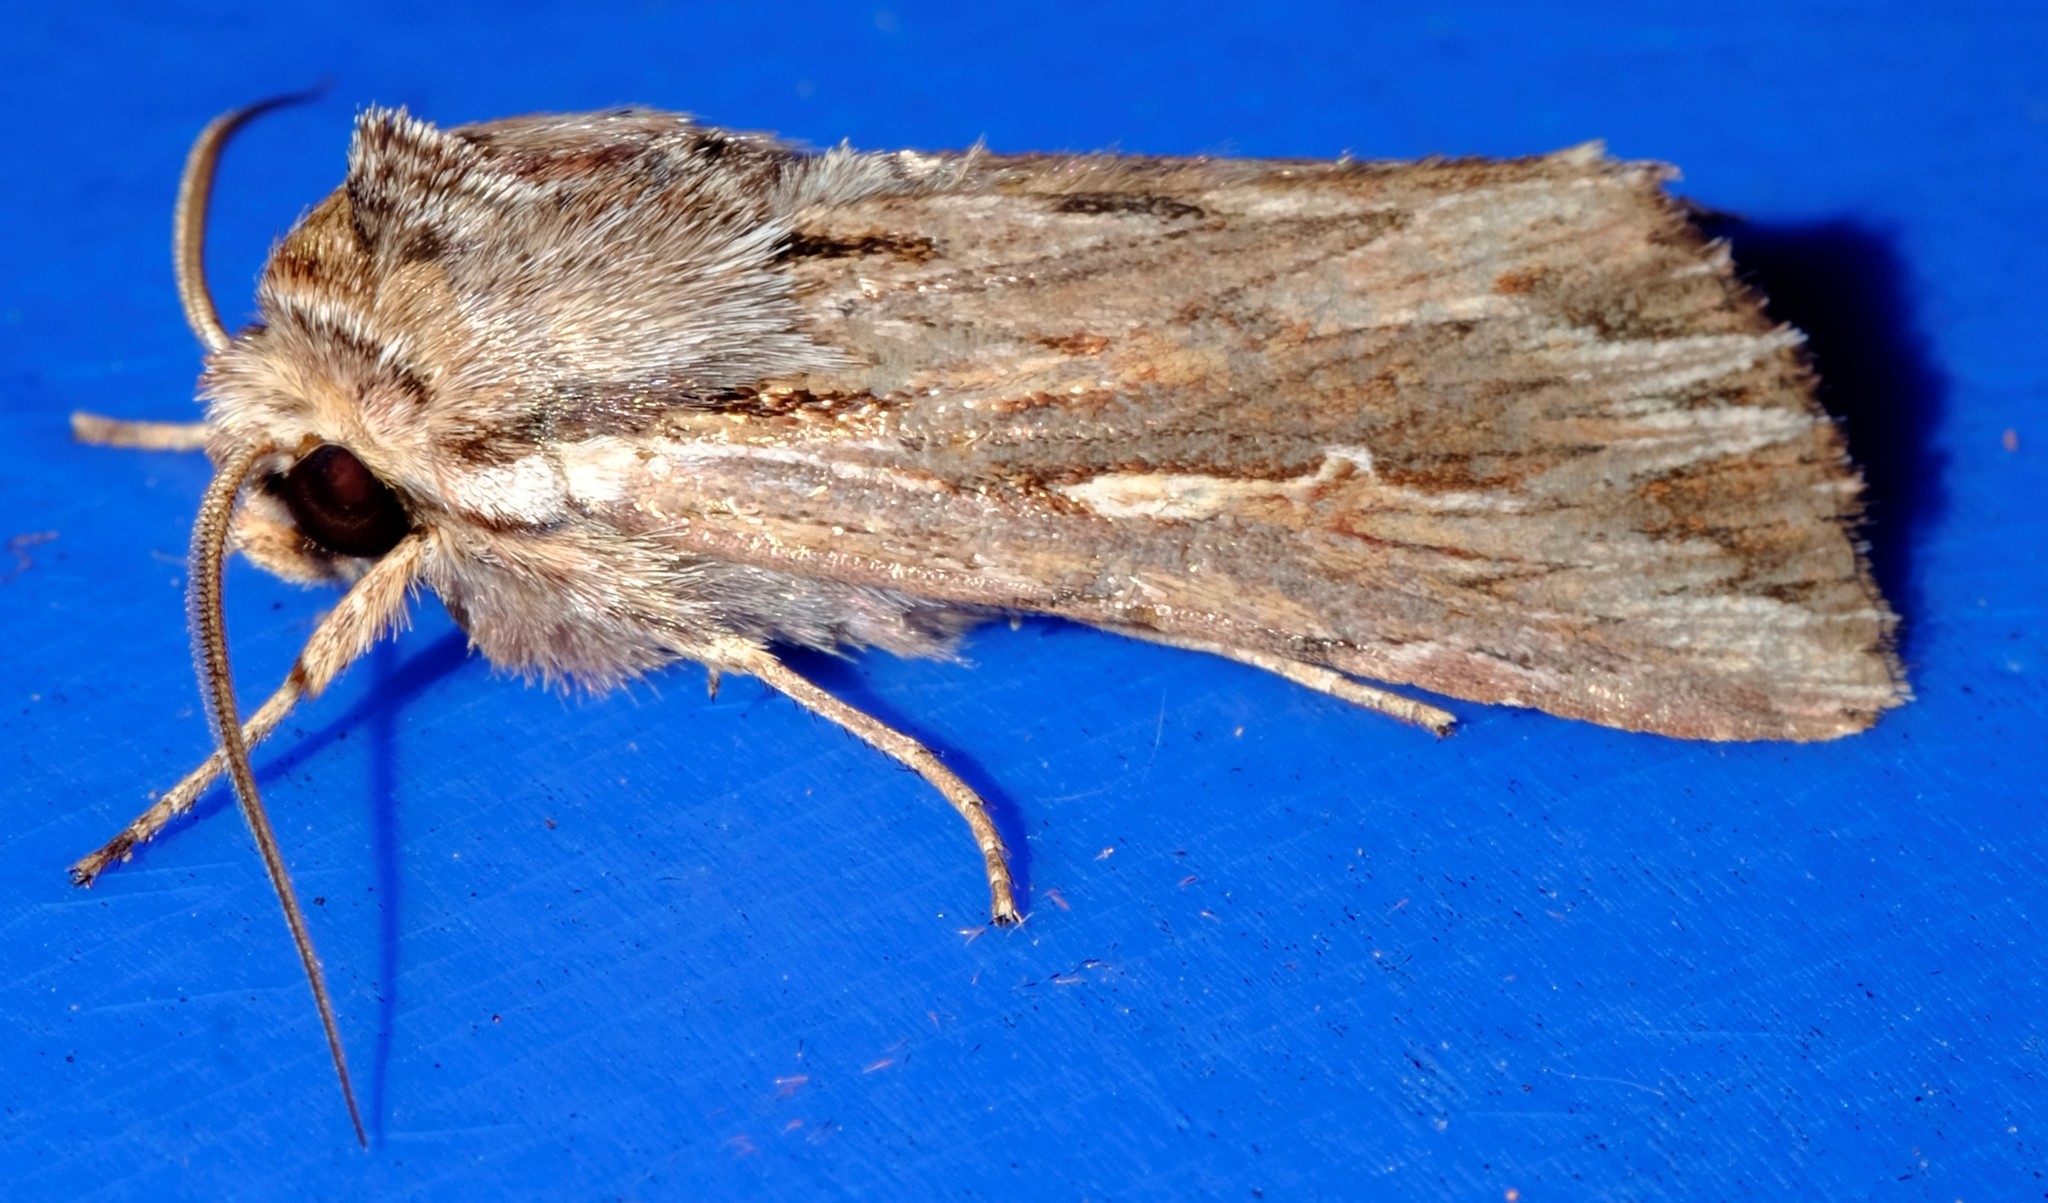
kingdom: Animalia
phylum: Arthropoda
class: Insecta
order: Lepidoptera
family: Noctuidae
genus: Persectania
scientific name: Persectania ewingii
